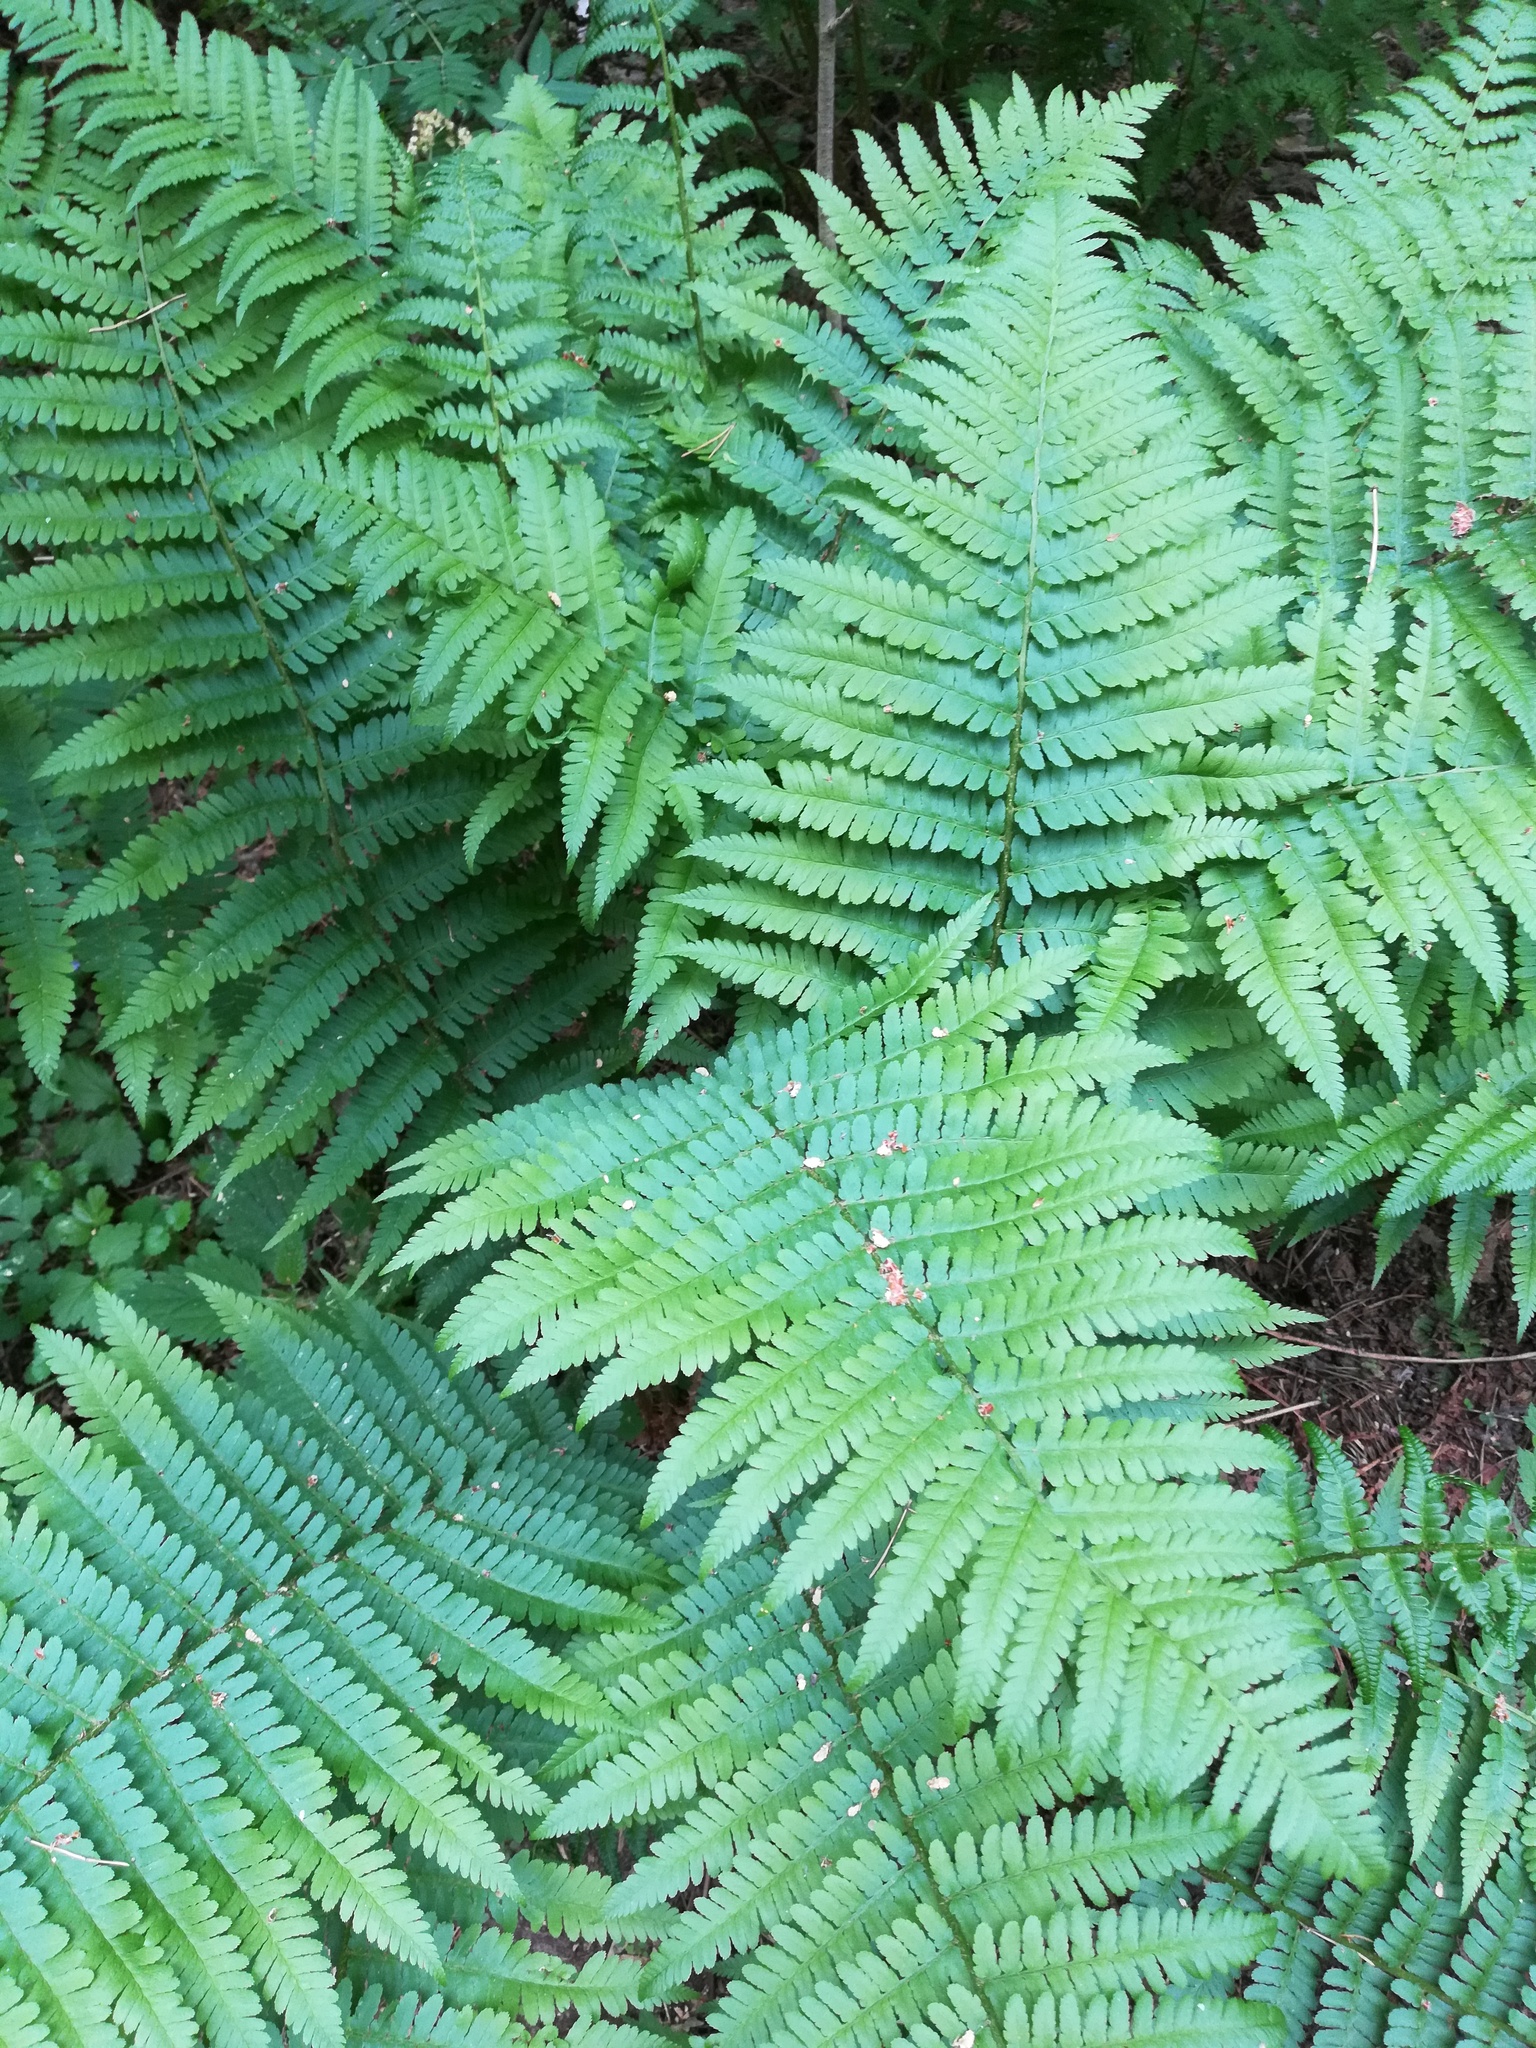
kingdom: Plantae
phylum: Tracheophyta
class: Polypodiopsida
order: Polypodiales
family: Dryopteridaceae
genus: Dryopteris
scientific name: Dryopteris filix-mas
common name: Male fern
